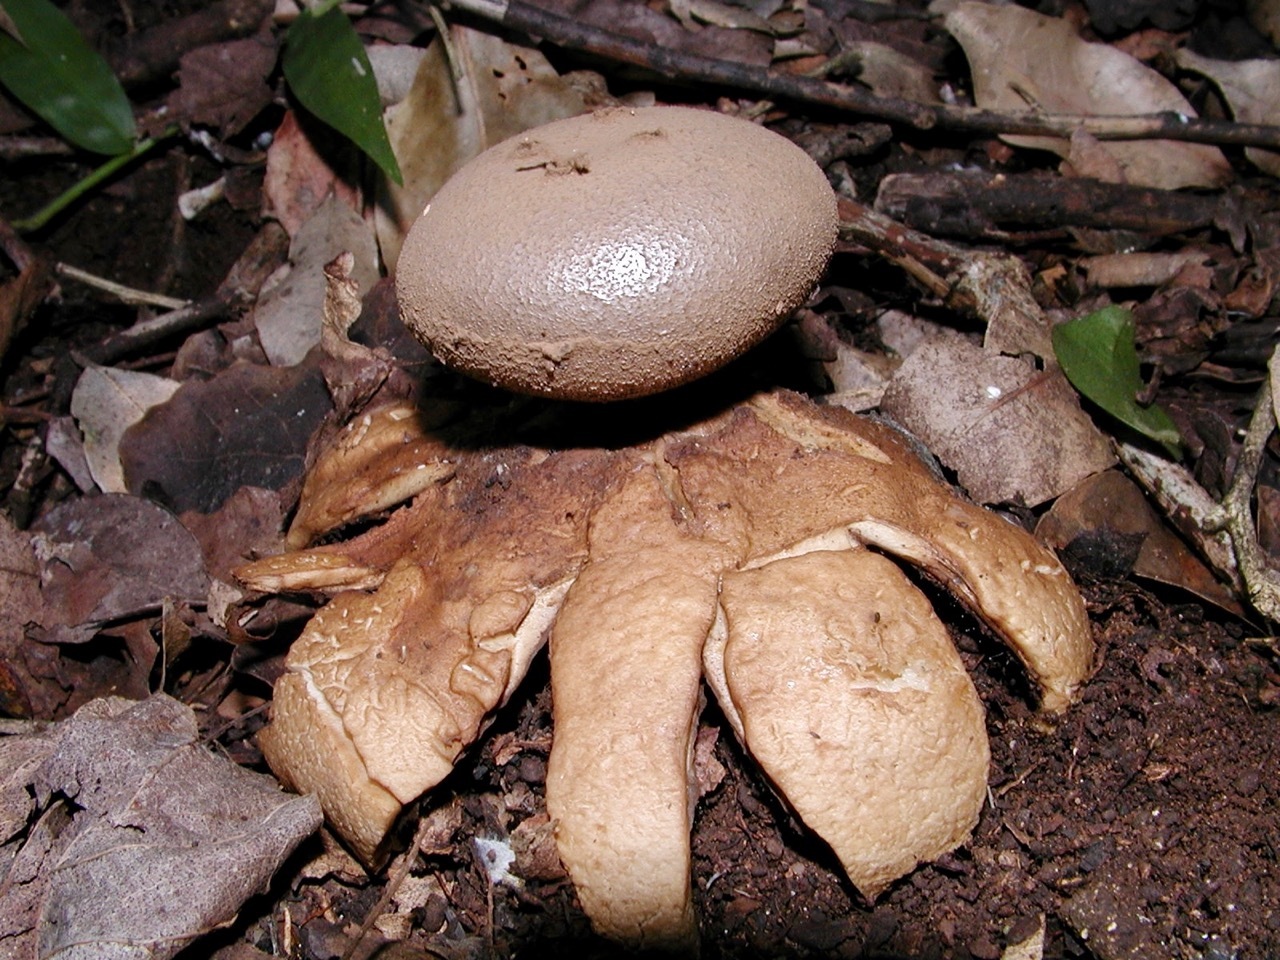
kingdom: Fungi
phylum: Basidiomycota
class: Agaricomycetes
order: Geastrales
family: Geastraceae
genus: Myriostoma
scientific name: Myriostoma capillisporum
